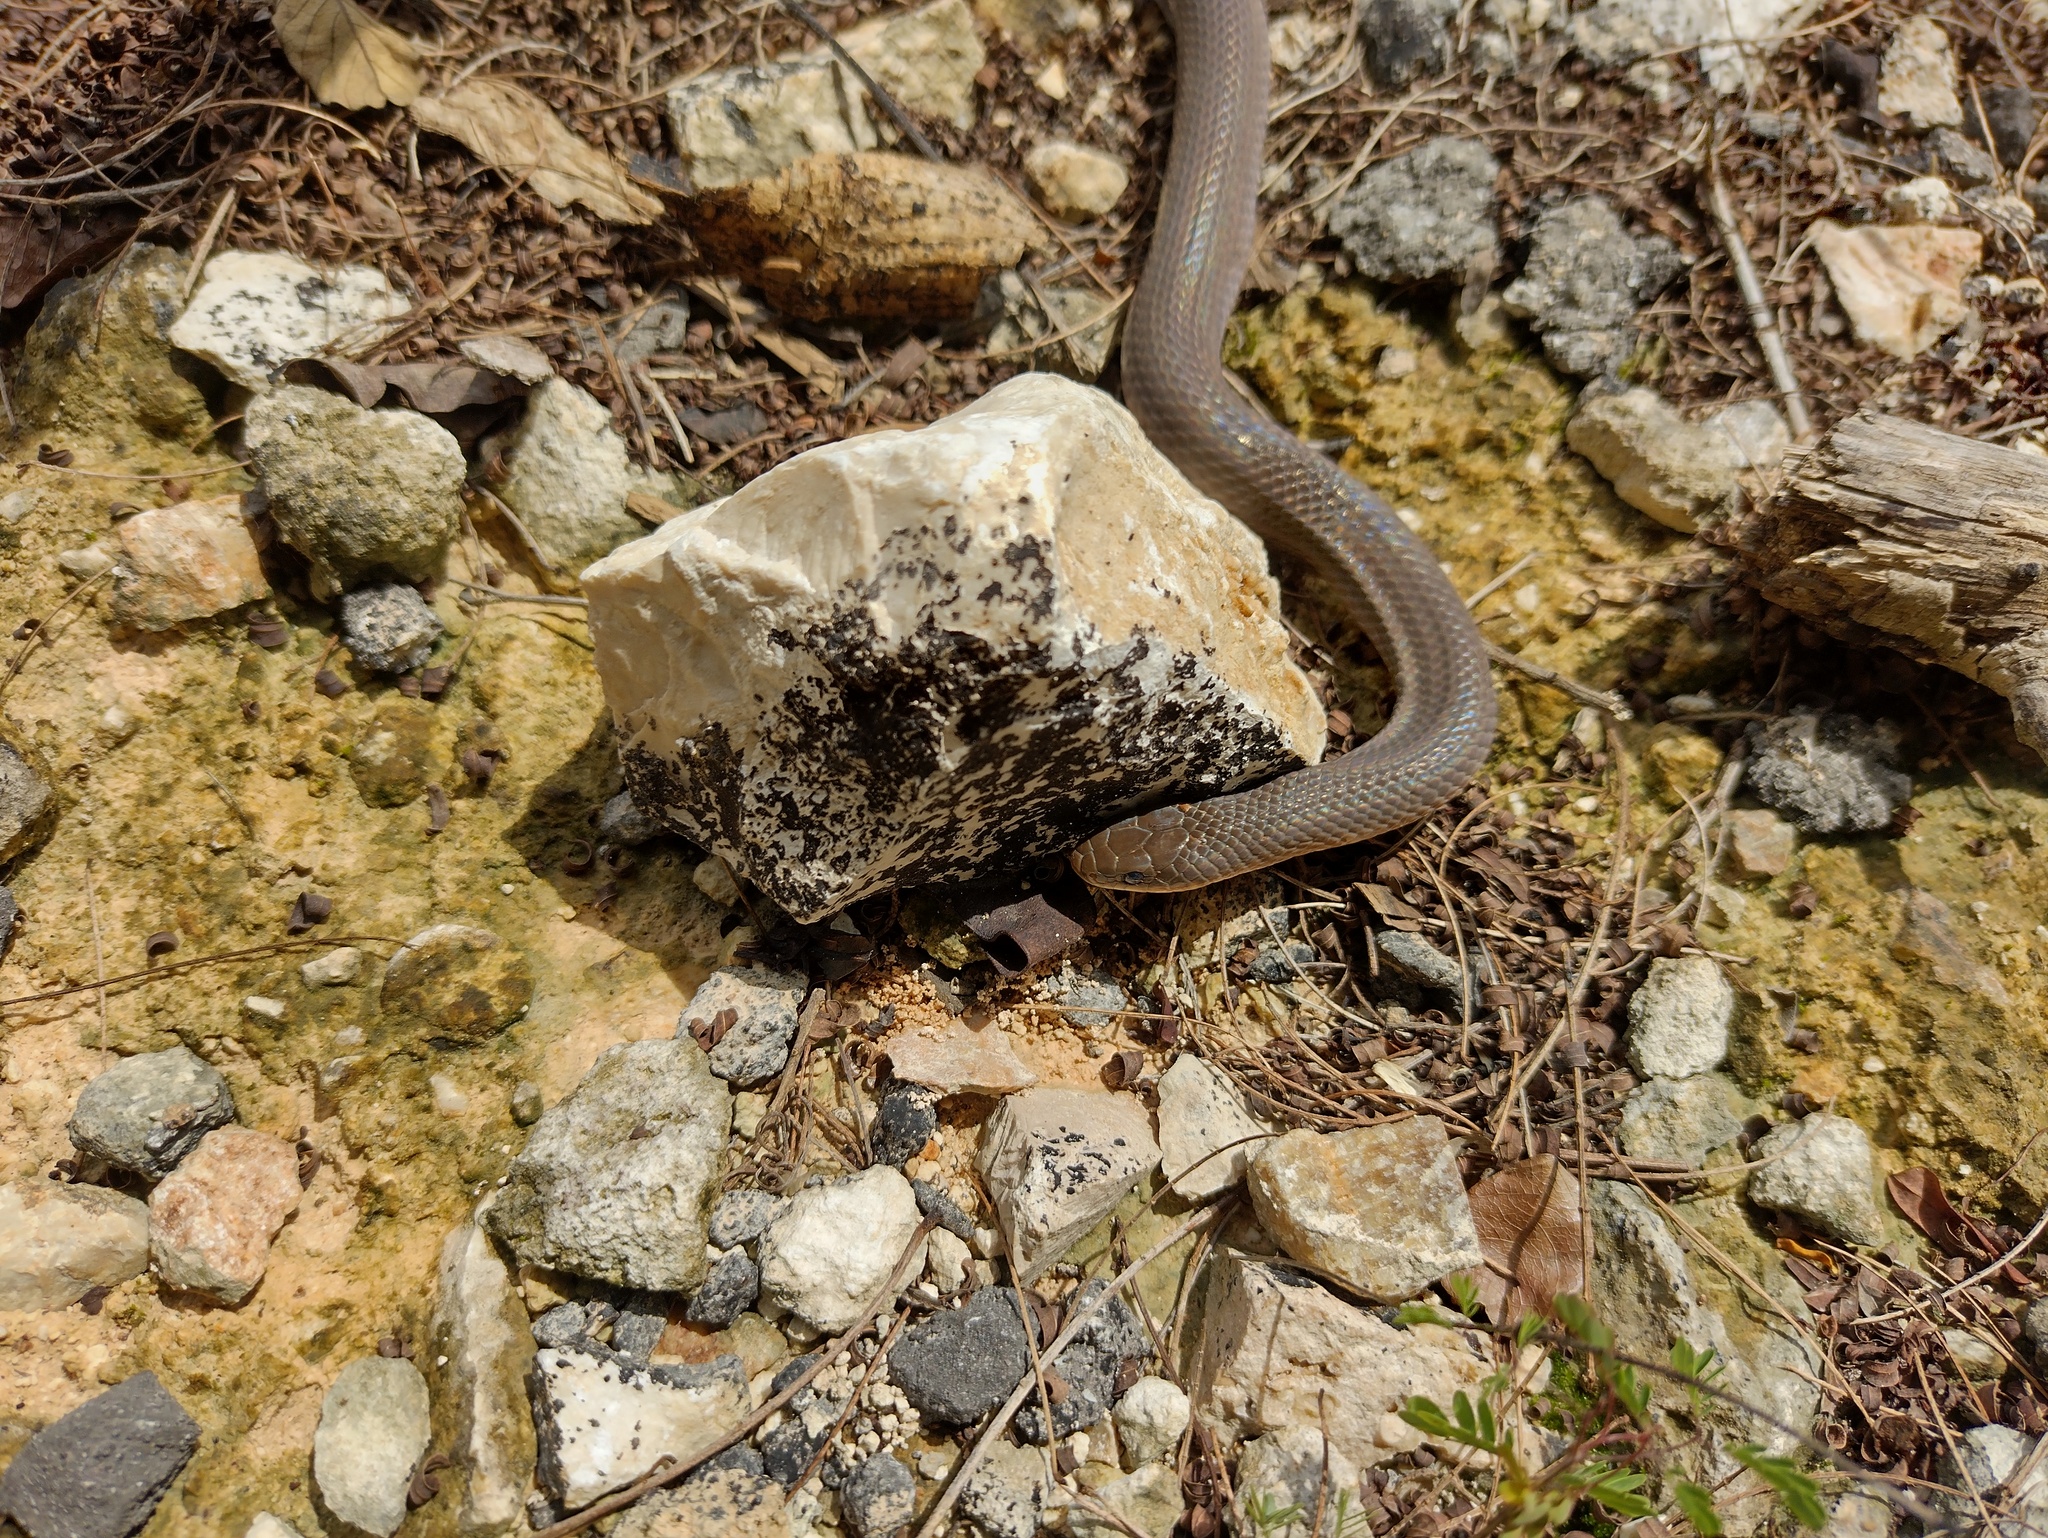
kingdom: Animalia
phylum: Chordata
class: Squamata
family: Colubridae
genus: Stenorrhina
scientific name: Stenorrhina freminvillei
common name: Blood snake
